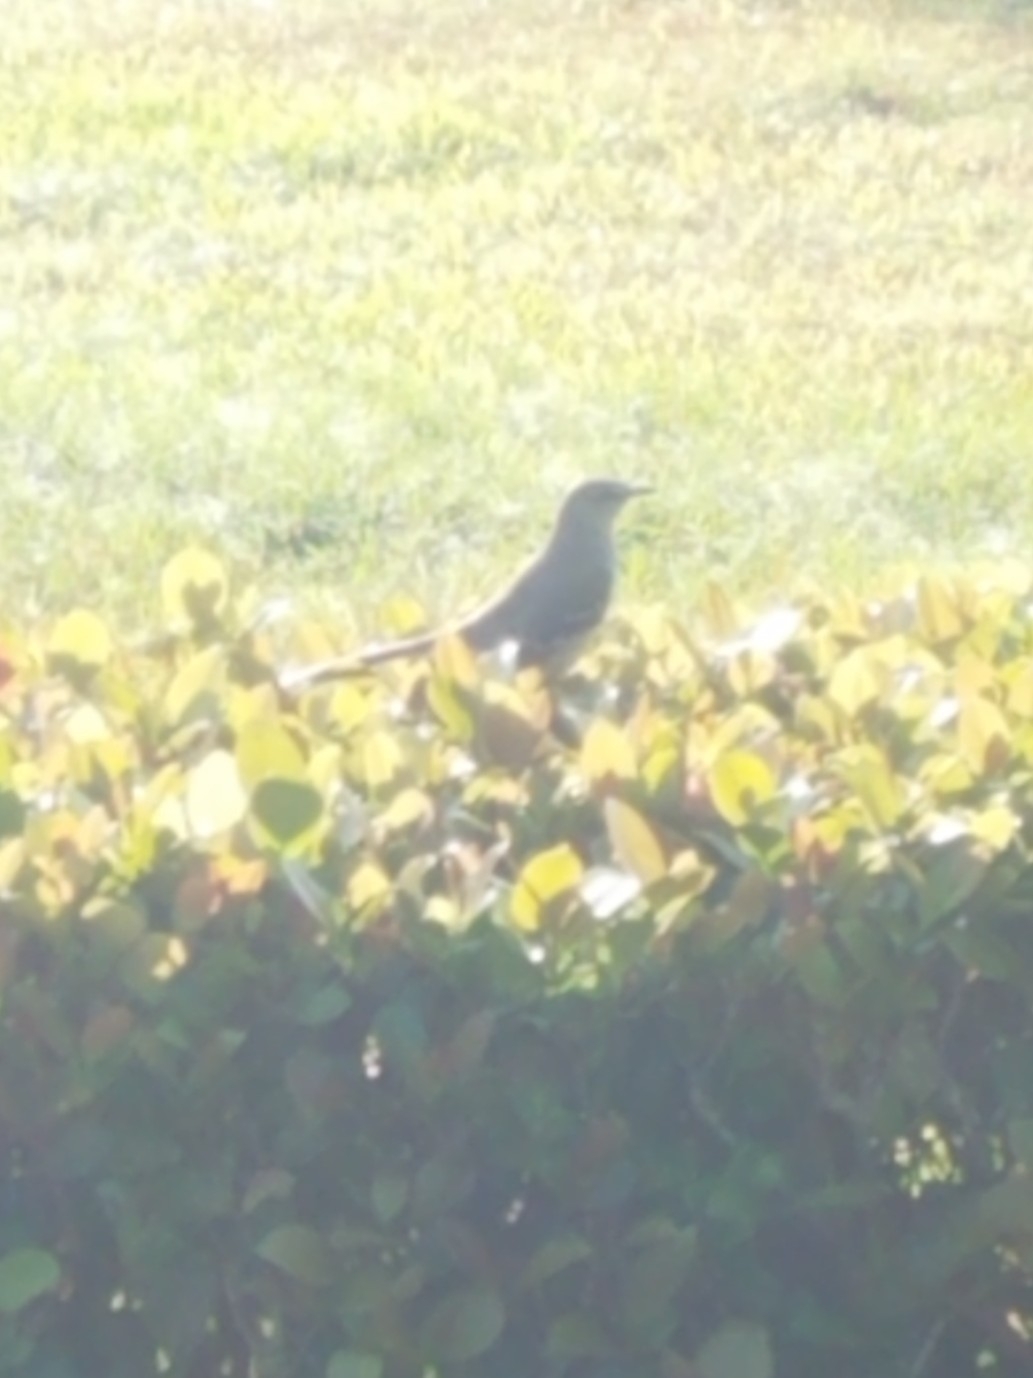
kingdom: Animalia
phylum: Chordata
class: Aves
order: Passeriformes
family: Mimidae
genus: Mimus
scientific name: Mimus polyglottos
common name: Northern mockingbird
